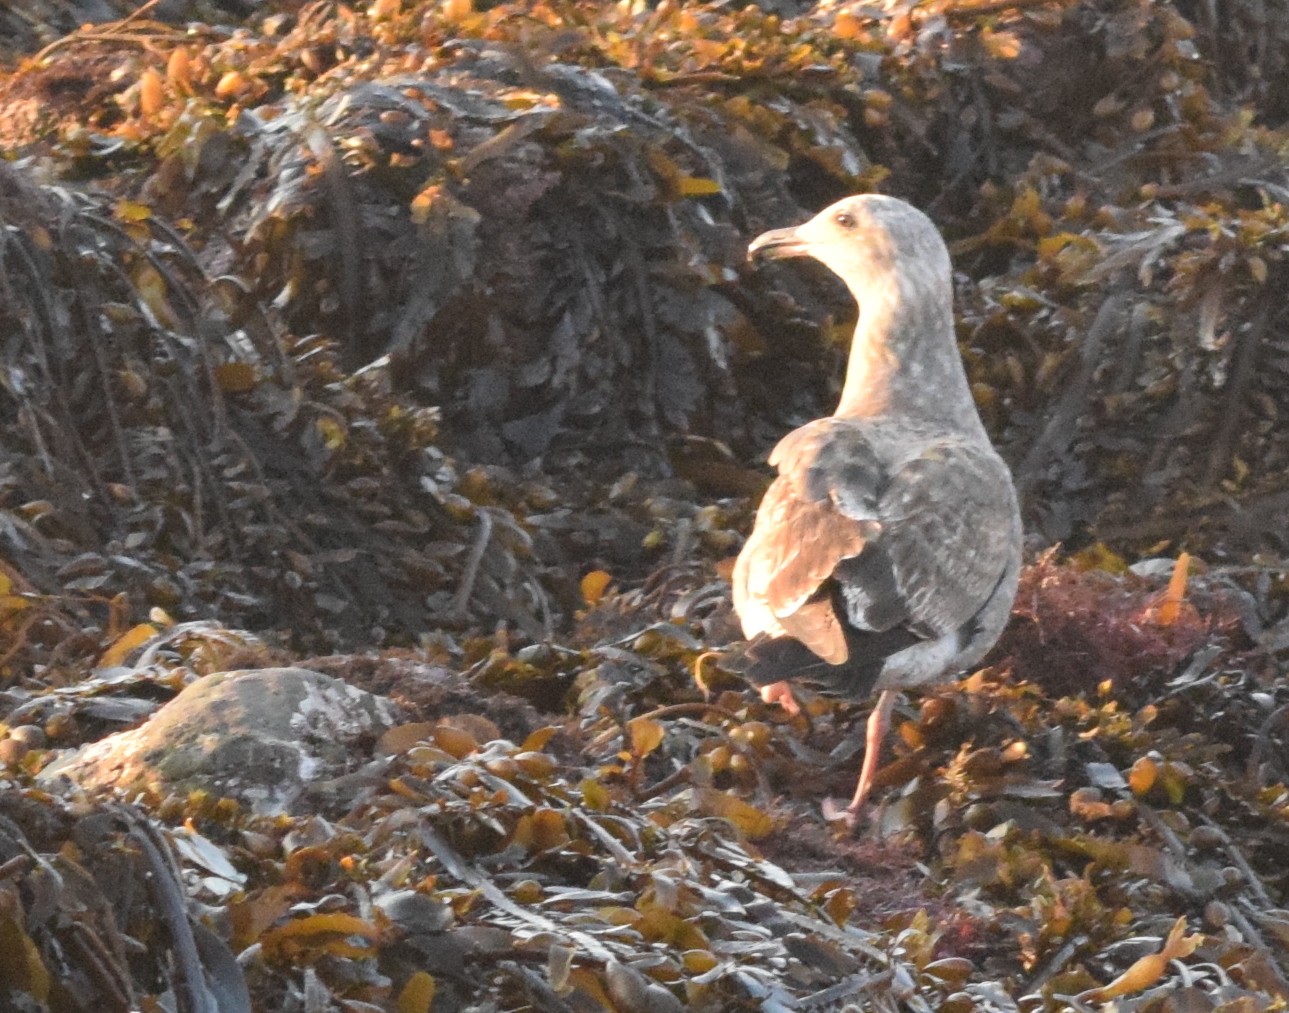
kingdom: Animalia
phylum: Chordata
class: Aves
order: Charadriiformes
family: Laridae
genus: Larus
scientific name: Larus occidentalis
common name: Western gull
